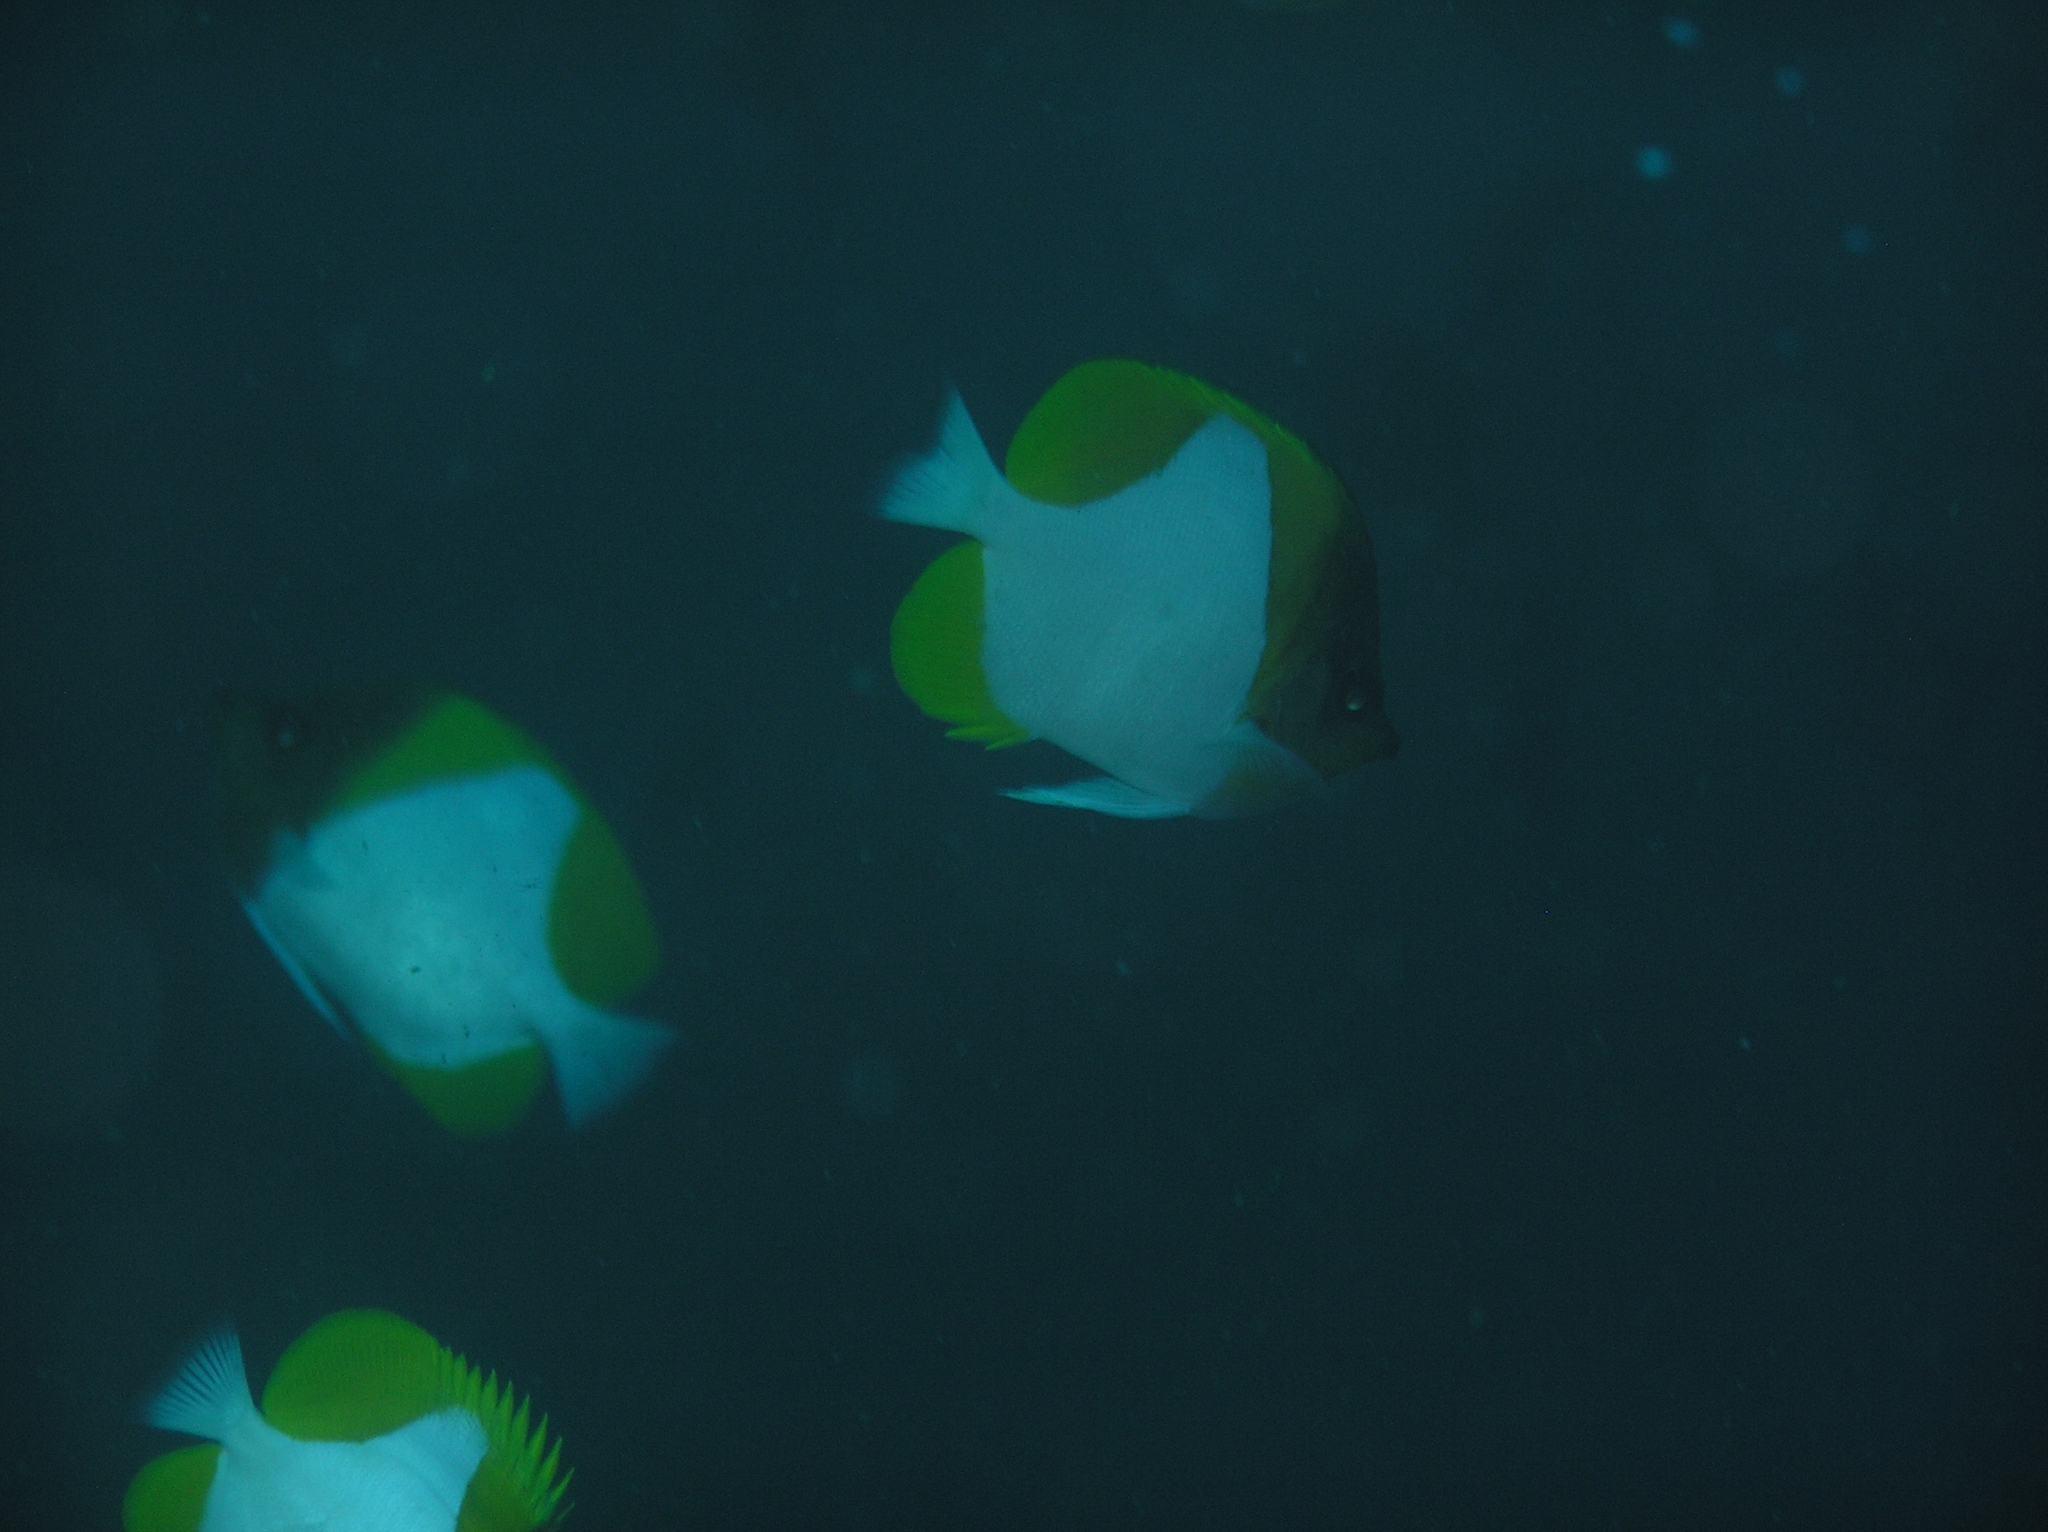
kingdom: Animalia
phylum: Chordata
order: Perciformes
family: Chaetodontidae
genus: Hemitaurichthys
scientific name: Hemitaurichthys polylepis
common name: Brushytoothed butterflyfish
